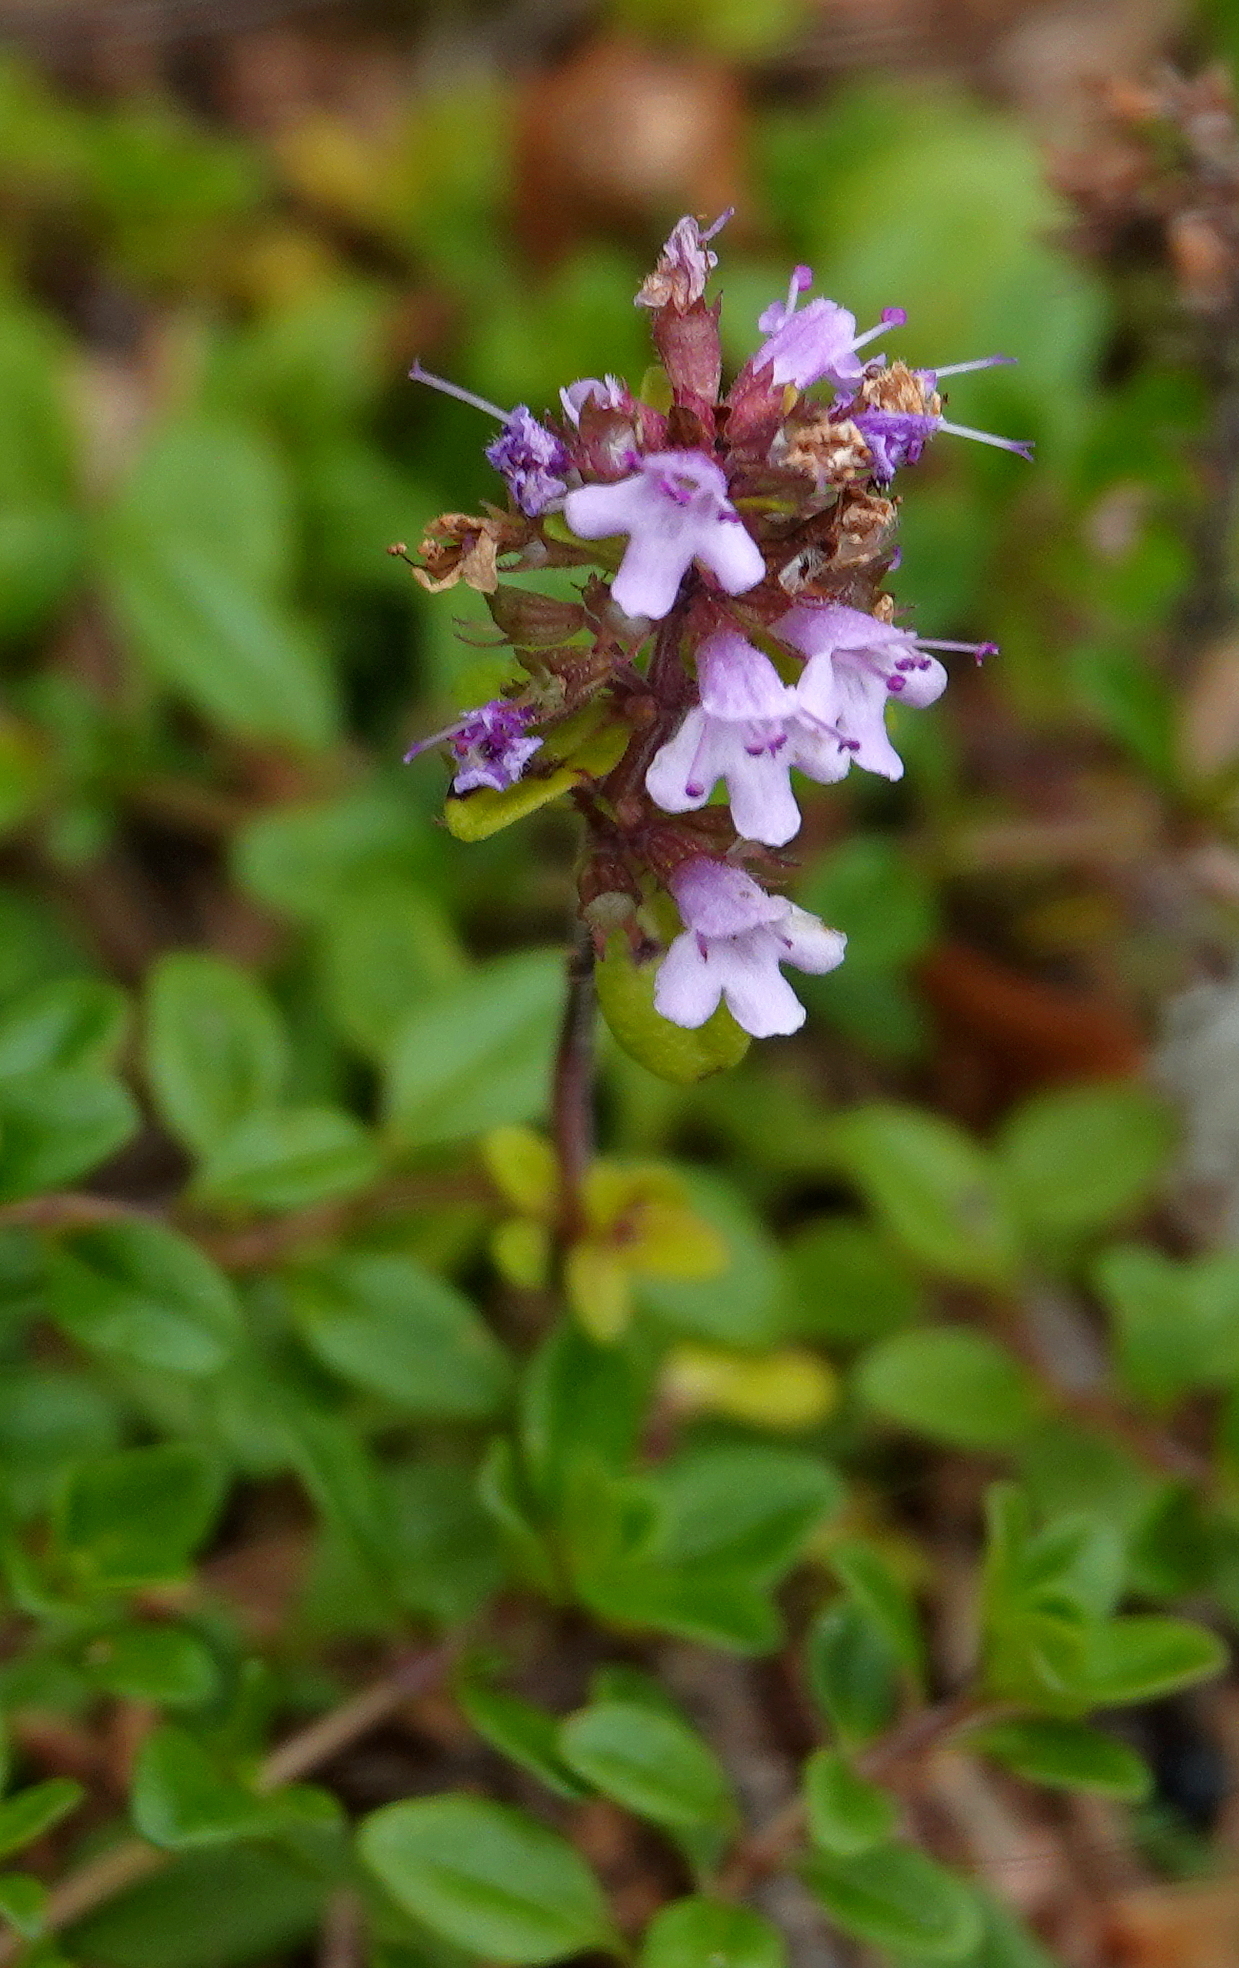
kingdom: Plantae
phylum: Tracheophyta
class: Magnoliopsida
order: Lamiales
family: Lamiaceae
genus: Thymus
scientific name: Thymus pulegioides
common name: Large thyme
